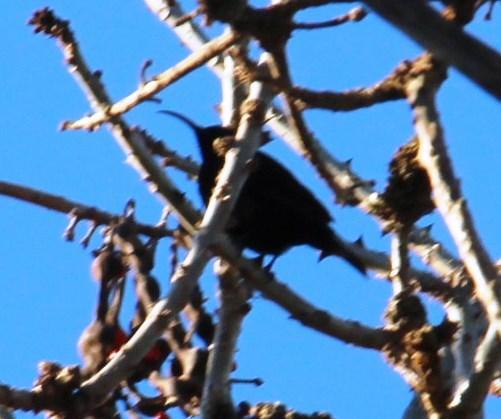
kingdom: Animalia
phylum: Chordata
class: Aves
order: Passeriformes
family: Nectariniidae
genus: Chalcomitra
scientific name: Chalcomitra amethystina
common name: Amethyst sunbird
